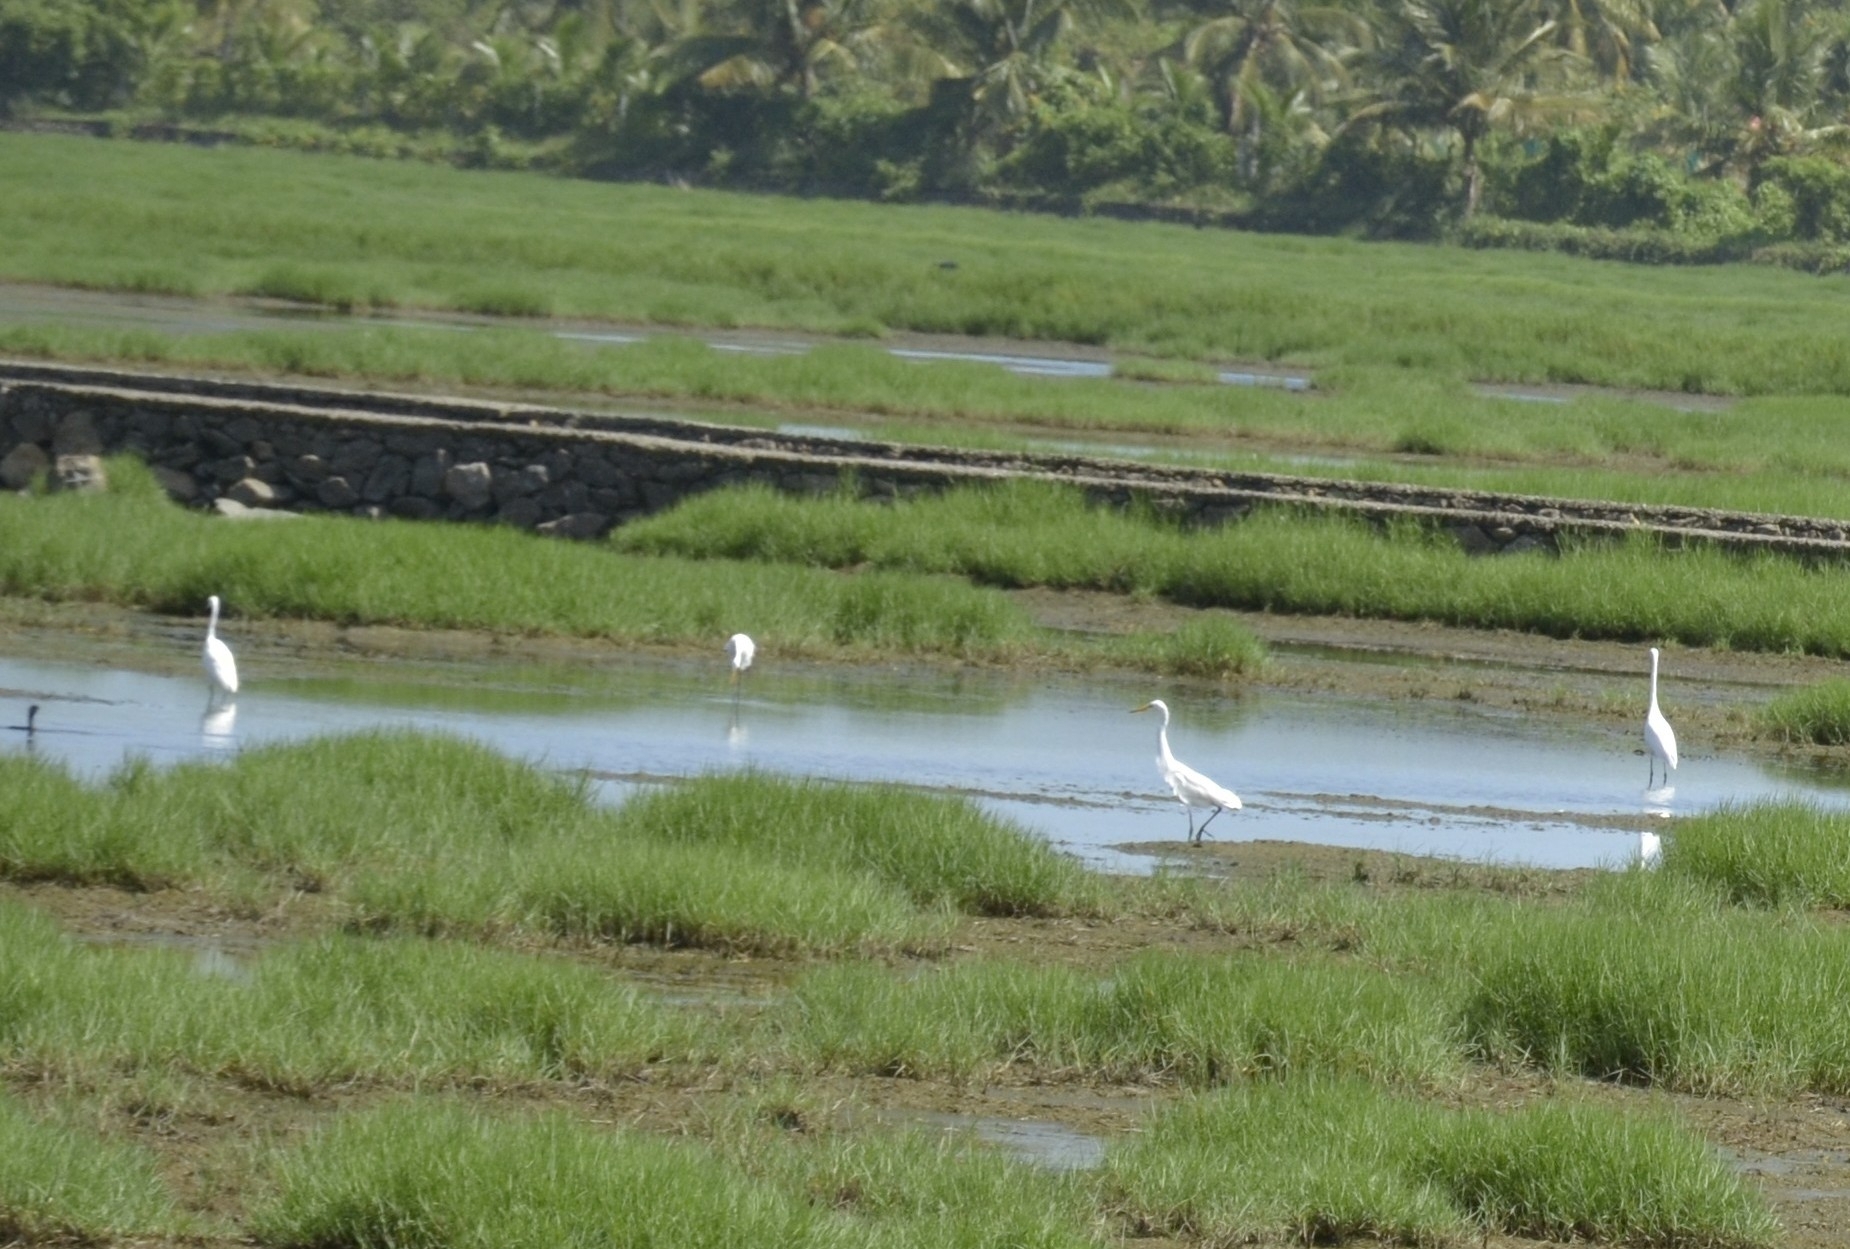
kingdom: Animalia
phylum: Chordata
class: Aves
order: Pelecaniformes
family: Ardeidae
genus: Egretta
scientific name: Egretta intermedia
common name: Intermediate egret
